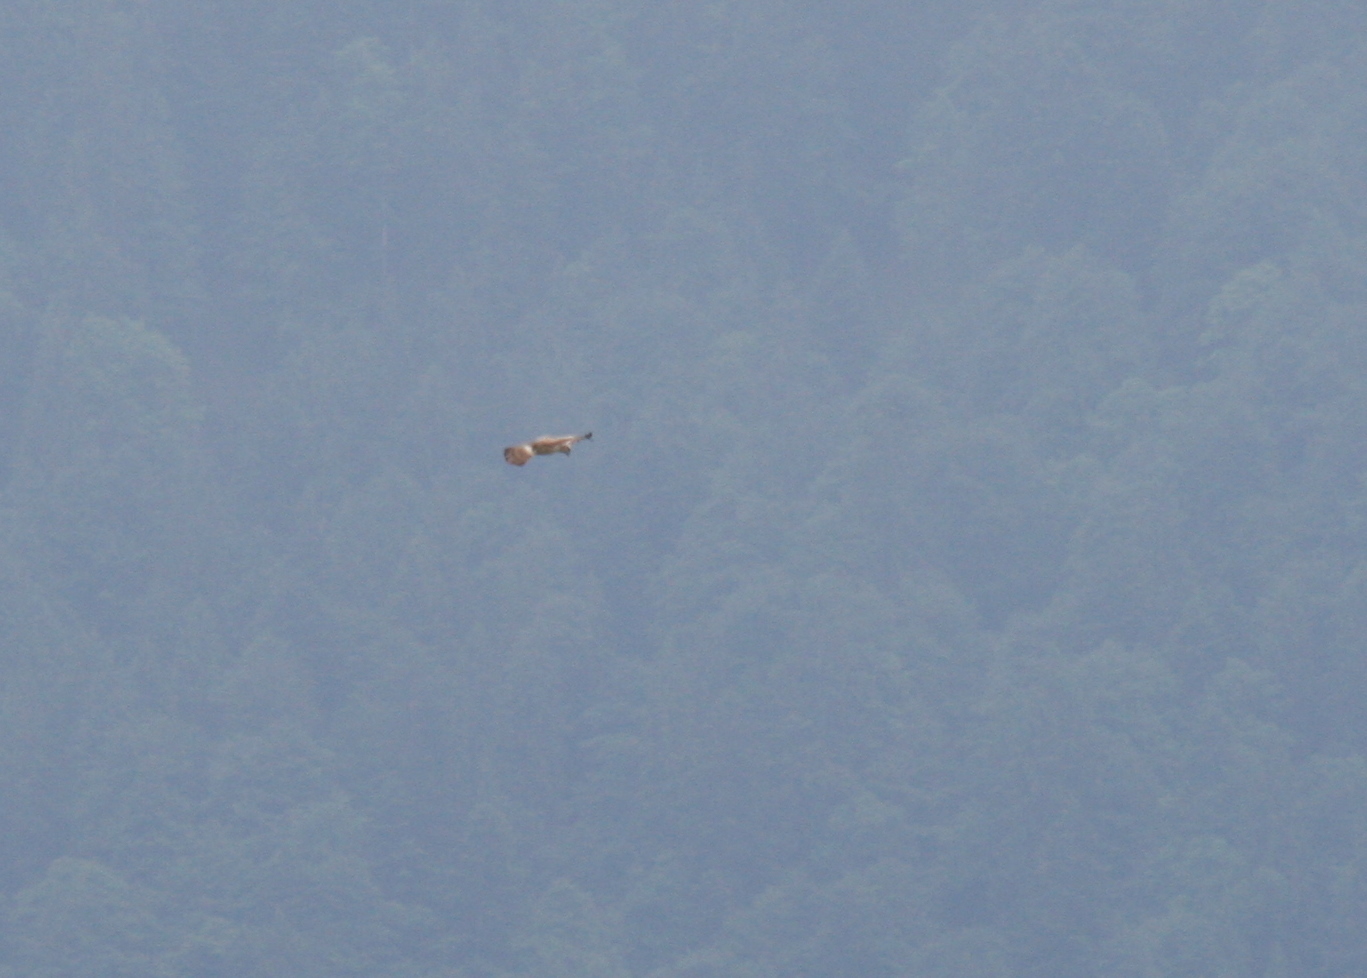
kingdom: Animalia
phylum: Chordata
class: Aves
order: Accipitriformes
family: Accipitridae
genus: Circaetus
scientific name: Circaetus gallicus
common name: Short-toed snake eagle
